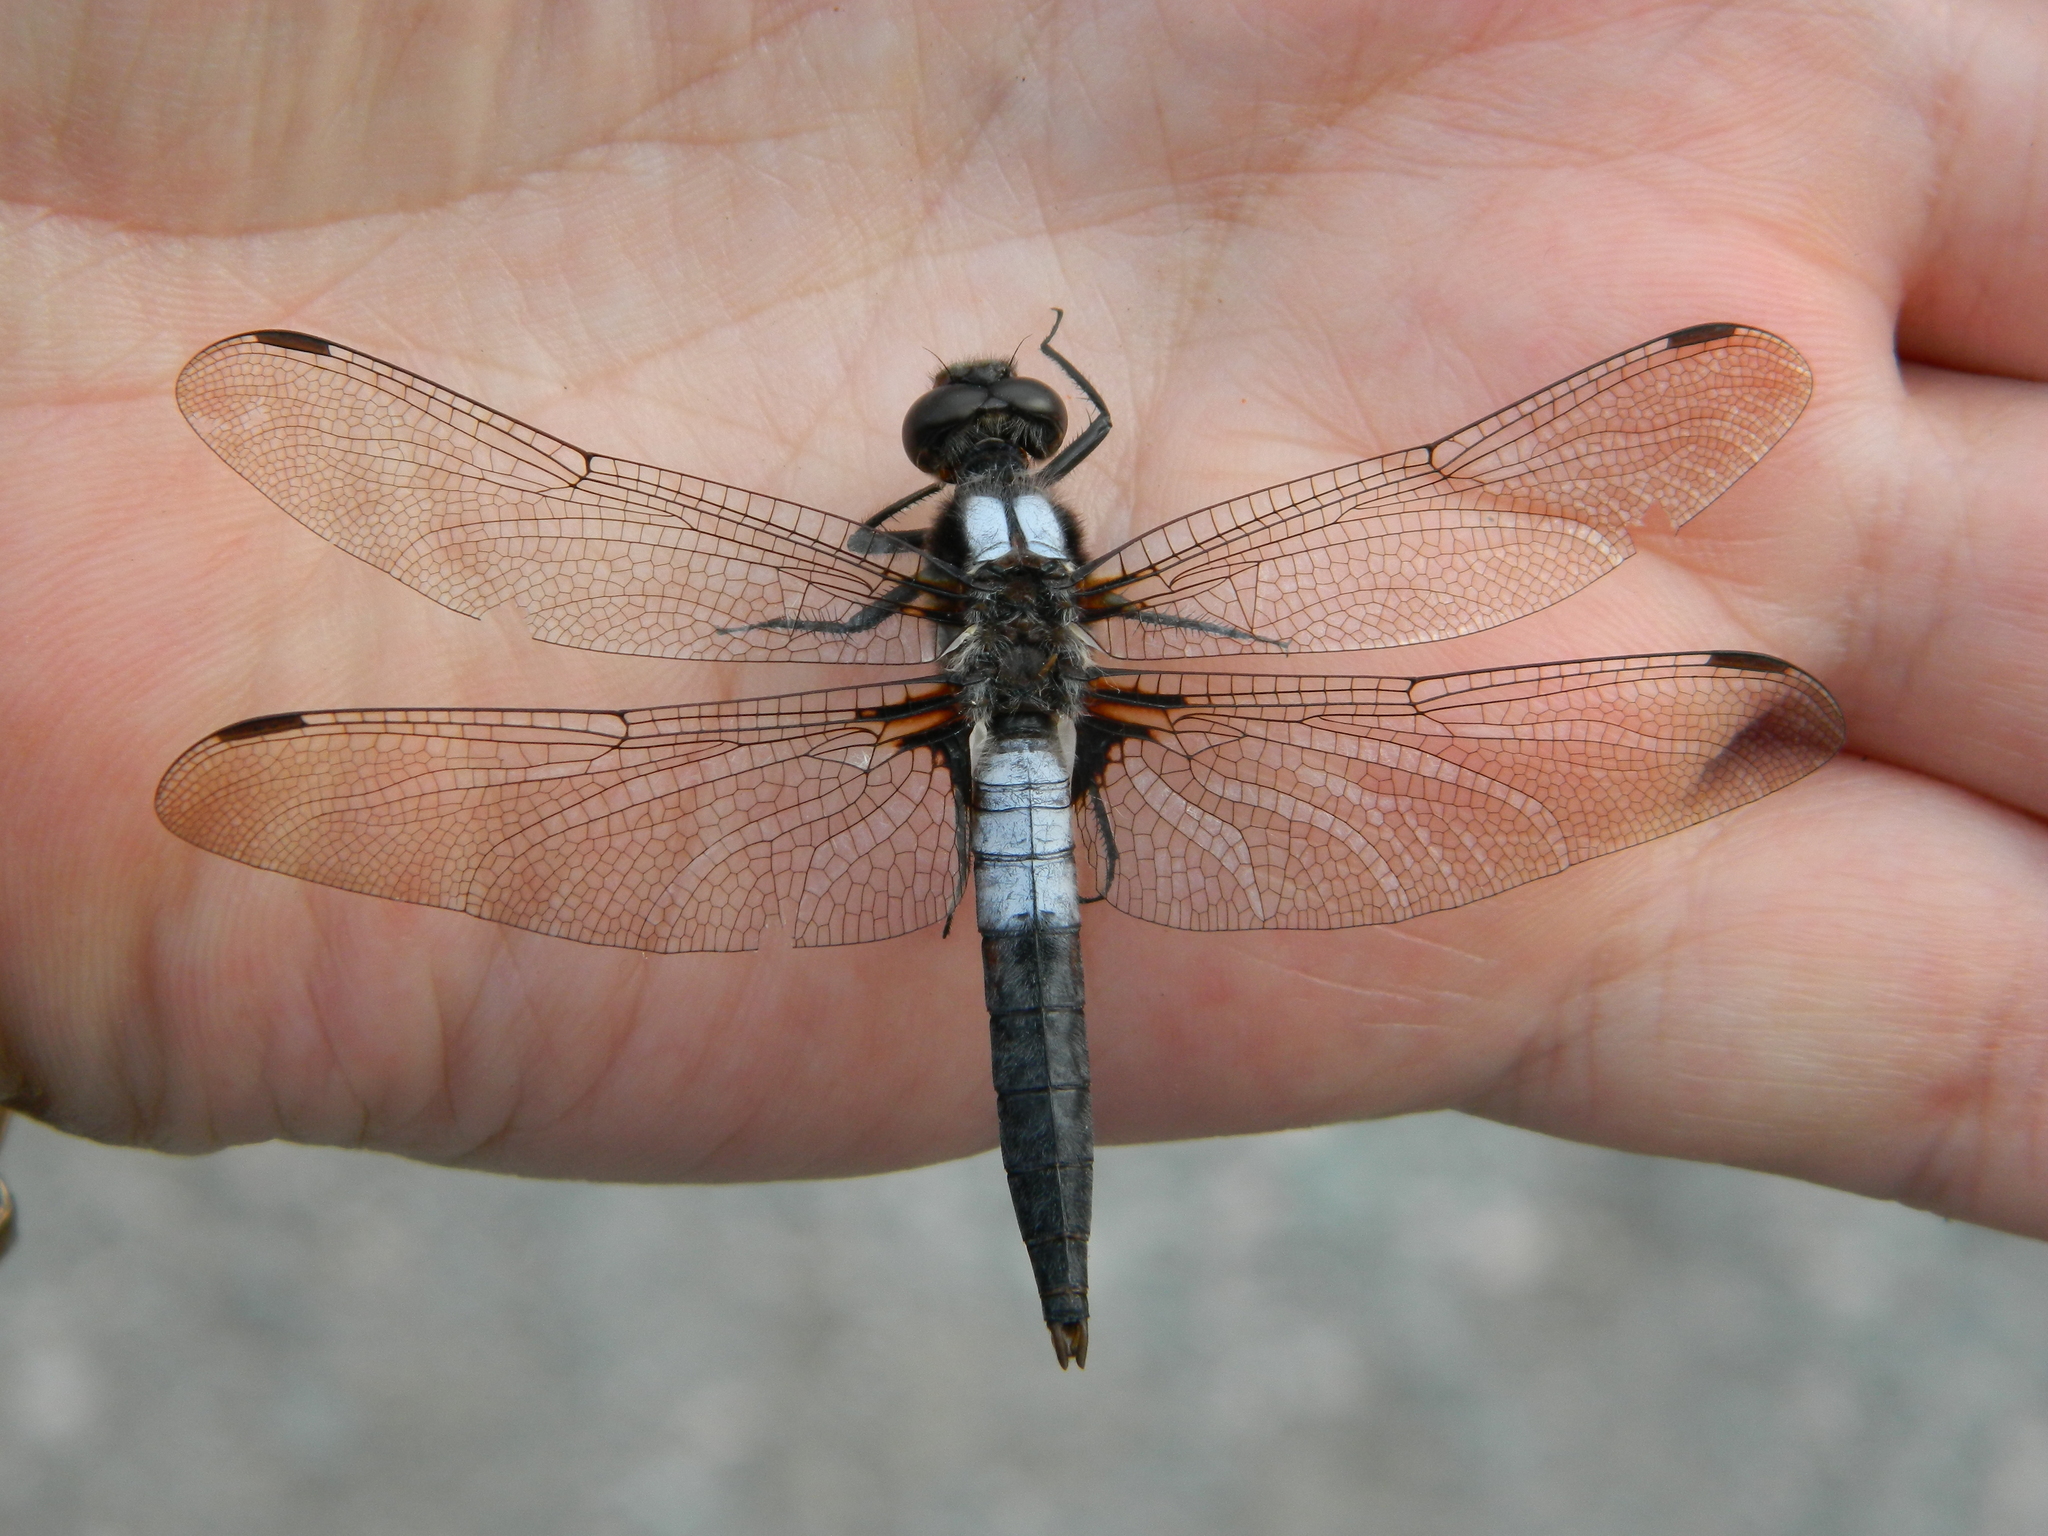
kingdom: Animalia
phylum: Arthropoda
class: Insecta
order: Odonata
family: Libellulidae
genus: Ladona
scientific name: Ladona julia
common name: Chalk-fronted corporal
